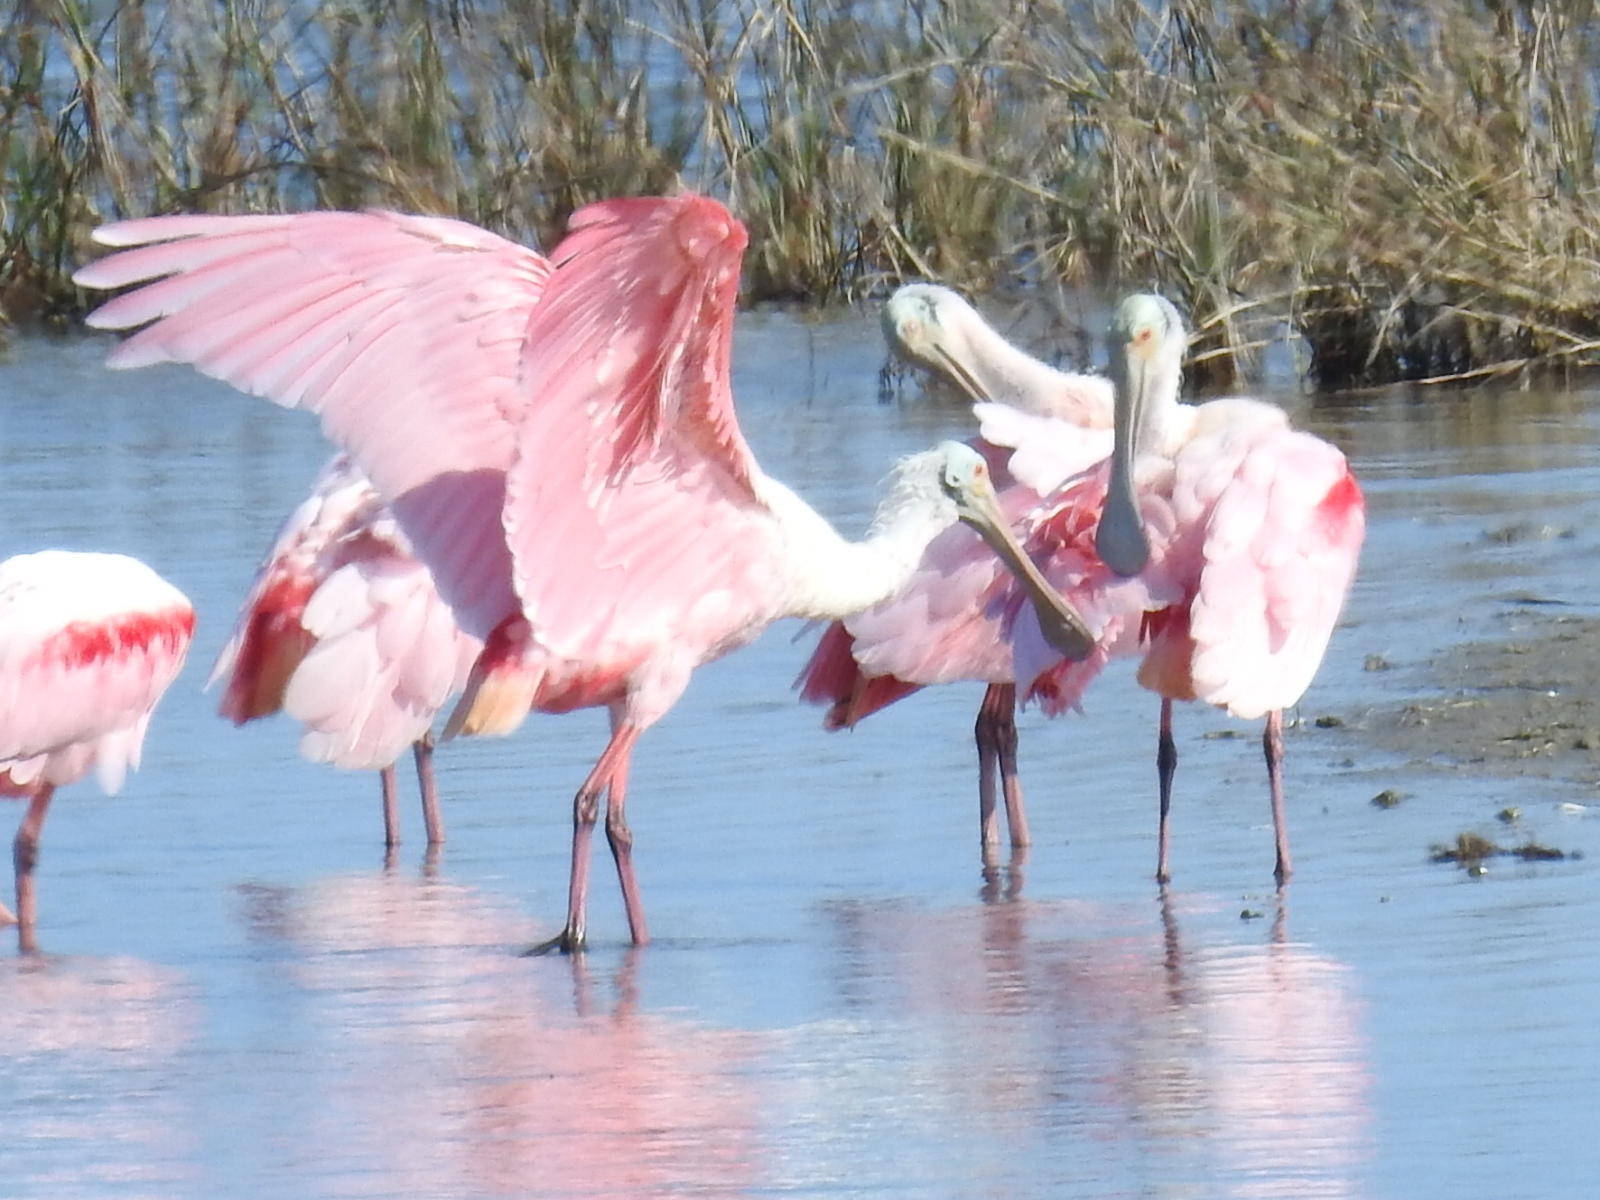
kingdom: Animalia
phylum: Chordata
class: Aves
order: Pelecaniformes
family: Threskiornithidae
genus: Platalea
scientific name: Platalea ajaja
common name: Roseate spoonbill
